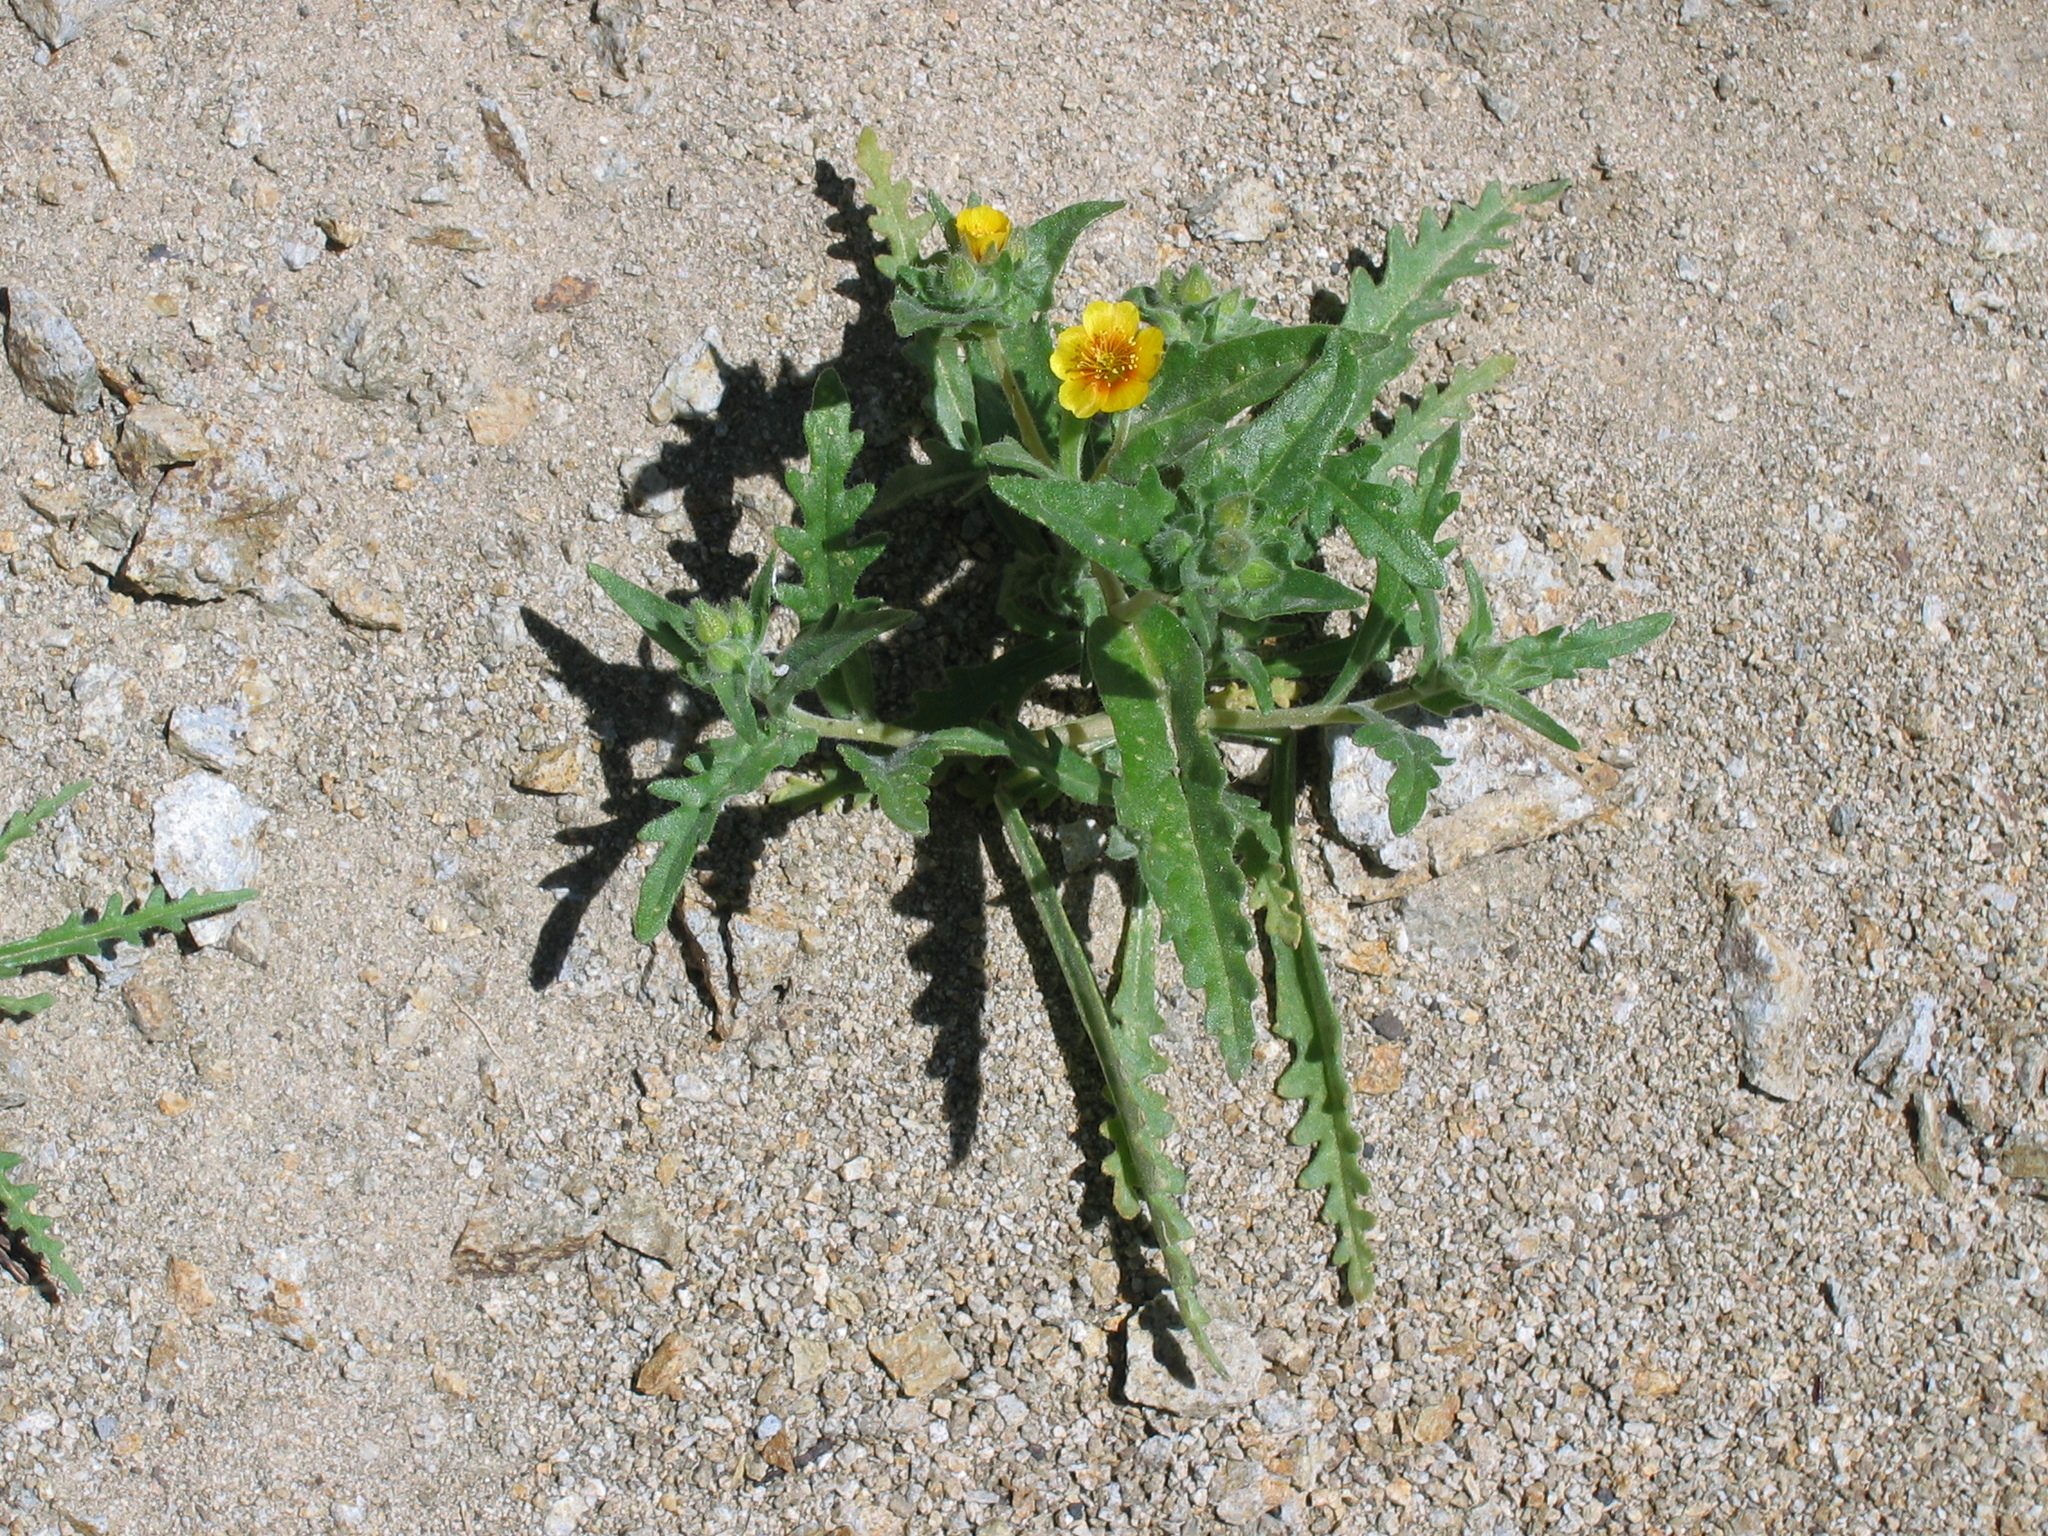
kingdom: Plantae
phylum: Tracheophyta
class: Magnoliopsida
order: Cornales
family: Loasaceae
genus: Mentzelia
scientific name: Mentzelia veatchiana
